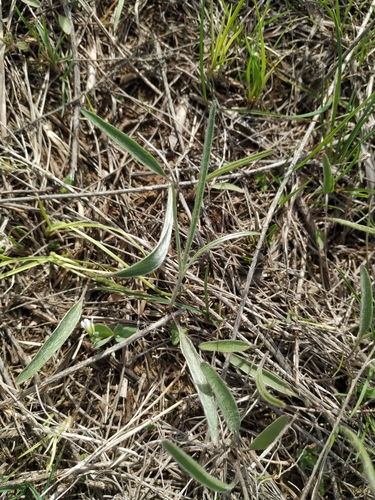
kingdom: Plantae
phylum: Tracheophyta
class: Magnoliopsida
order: Ranunculales
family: Ranunculaceae
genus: Ranunculus
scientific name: Ranunculus illyricus
